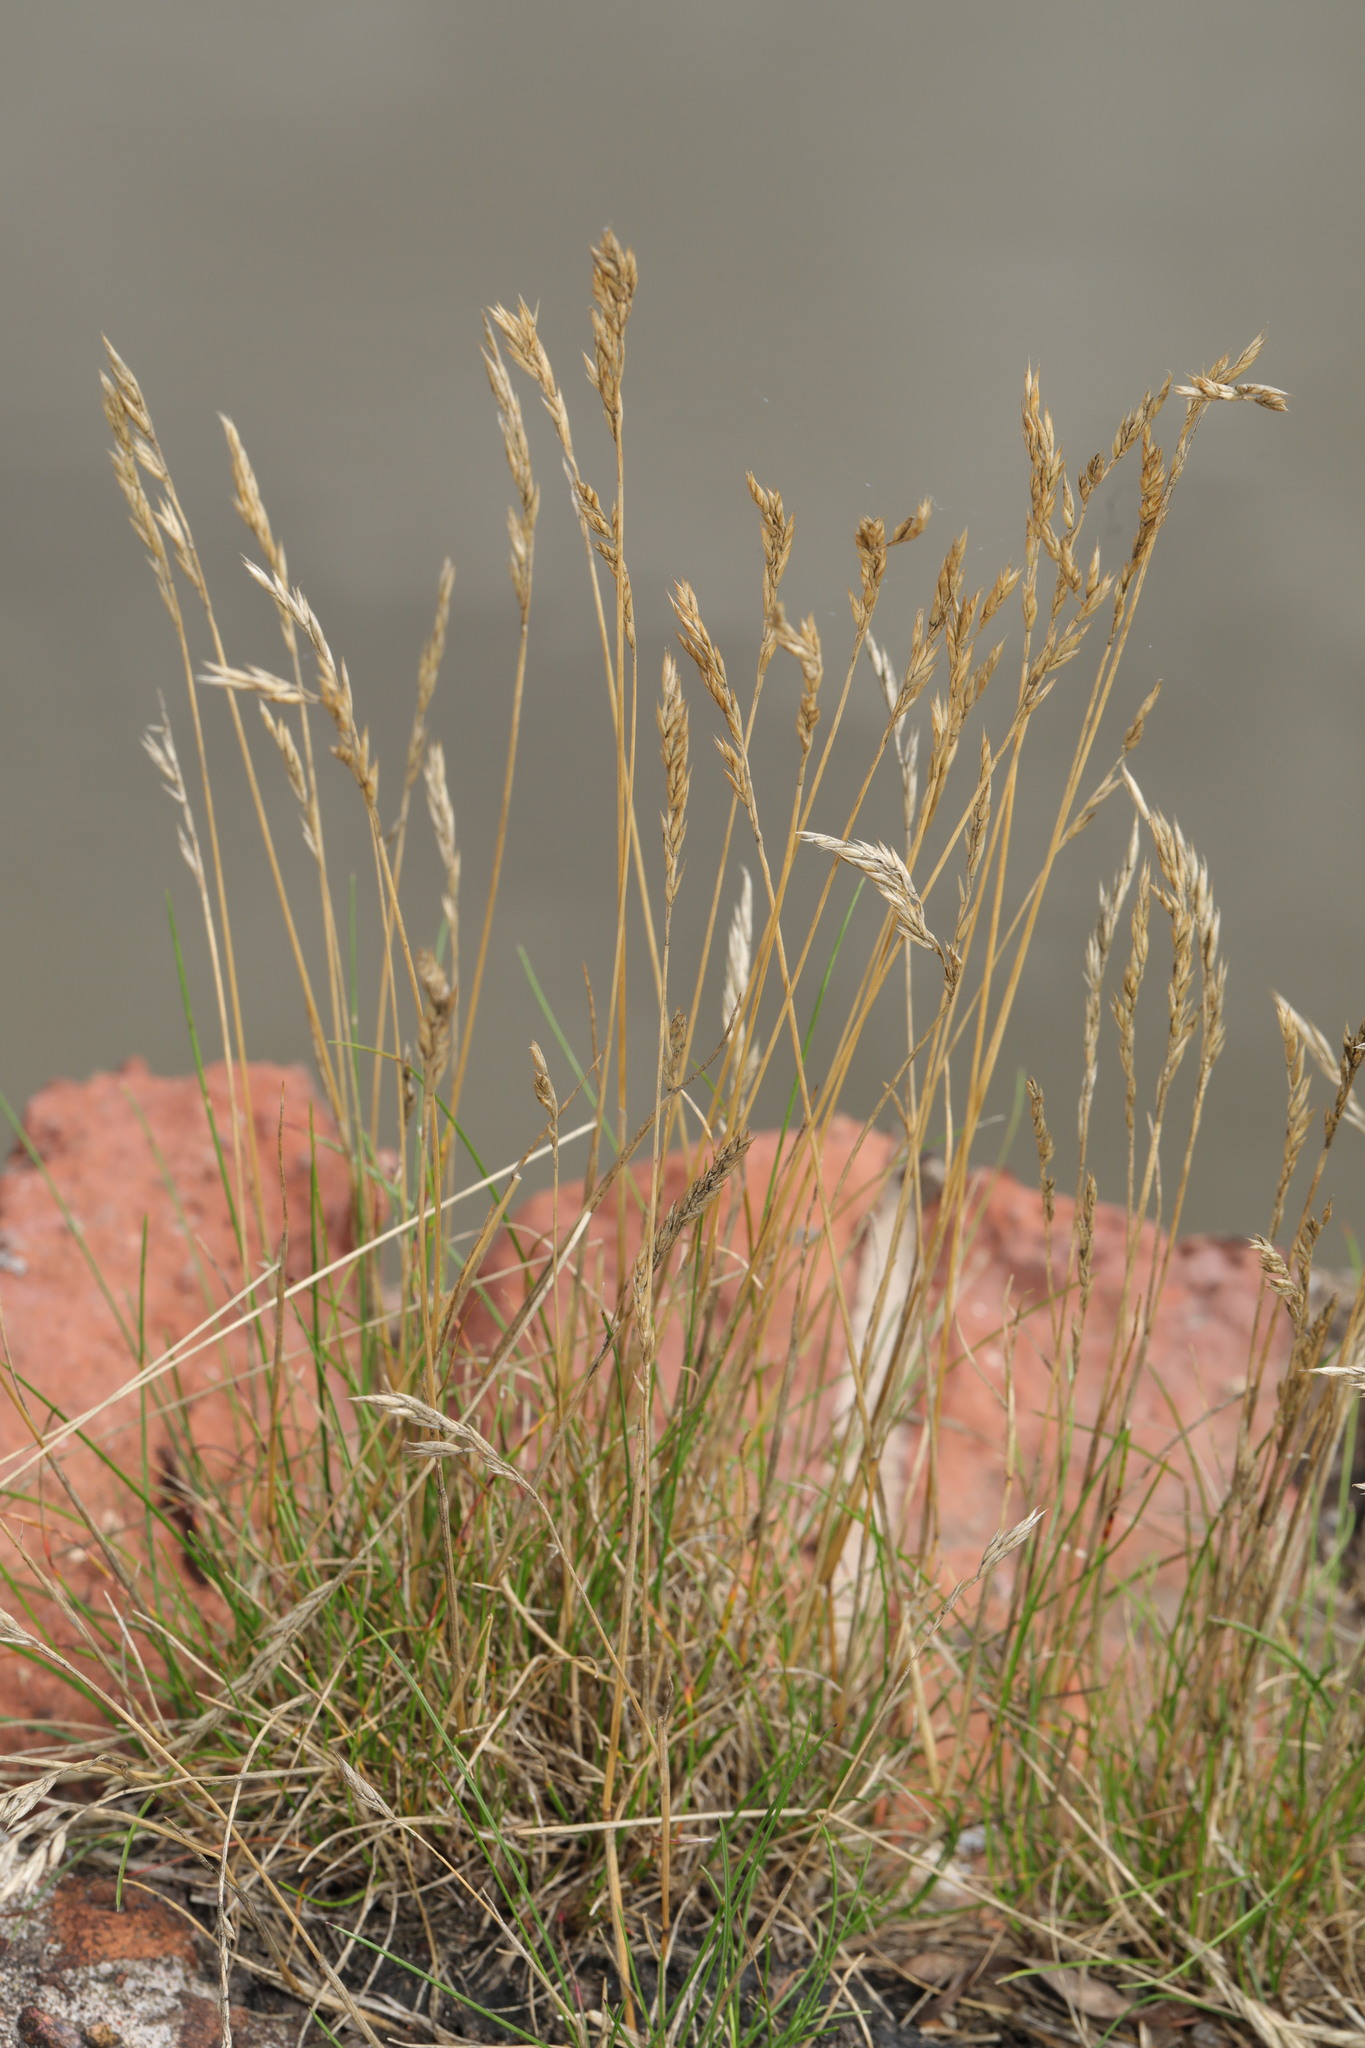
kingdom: Plantae
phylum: Tracheophyta
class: Liliopsida
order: Poales
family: Poaceae
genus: Festuca
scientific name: Festuca rubra
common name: Red fescue
